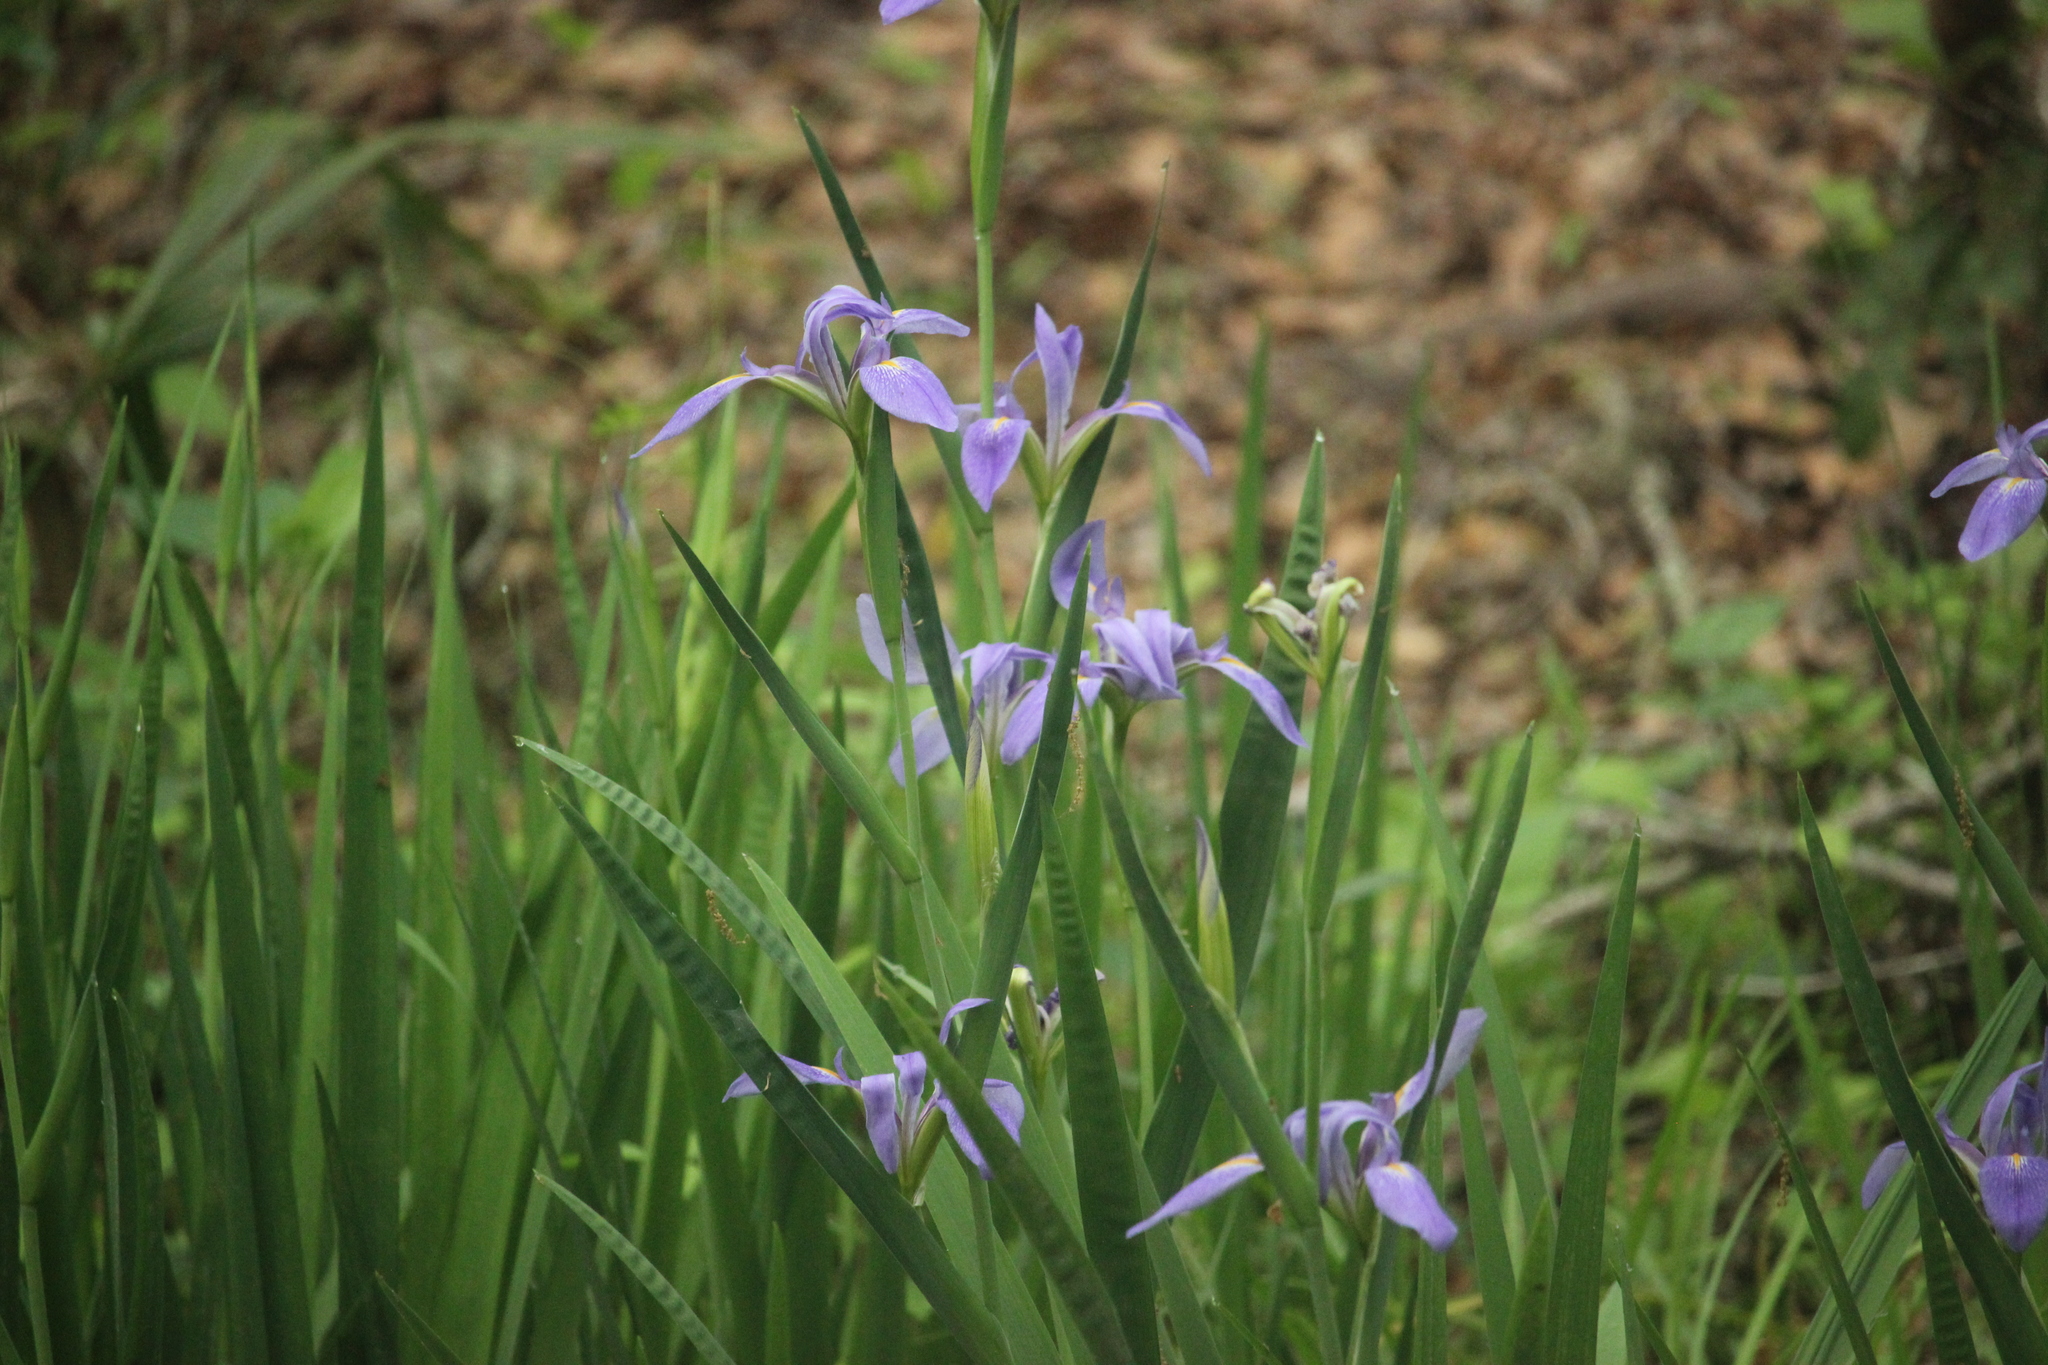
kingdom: Plantae
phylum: Tracheophyta
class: Liliopsida
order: Asparagales
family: Iridaceae
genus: Iris
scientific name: Iris savannarum
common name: Prairie iris
